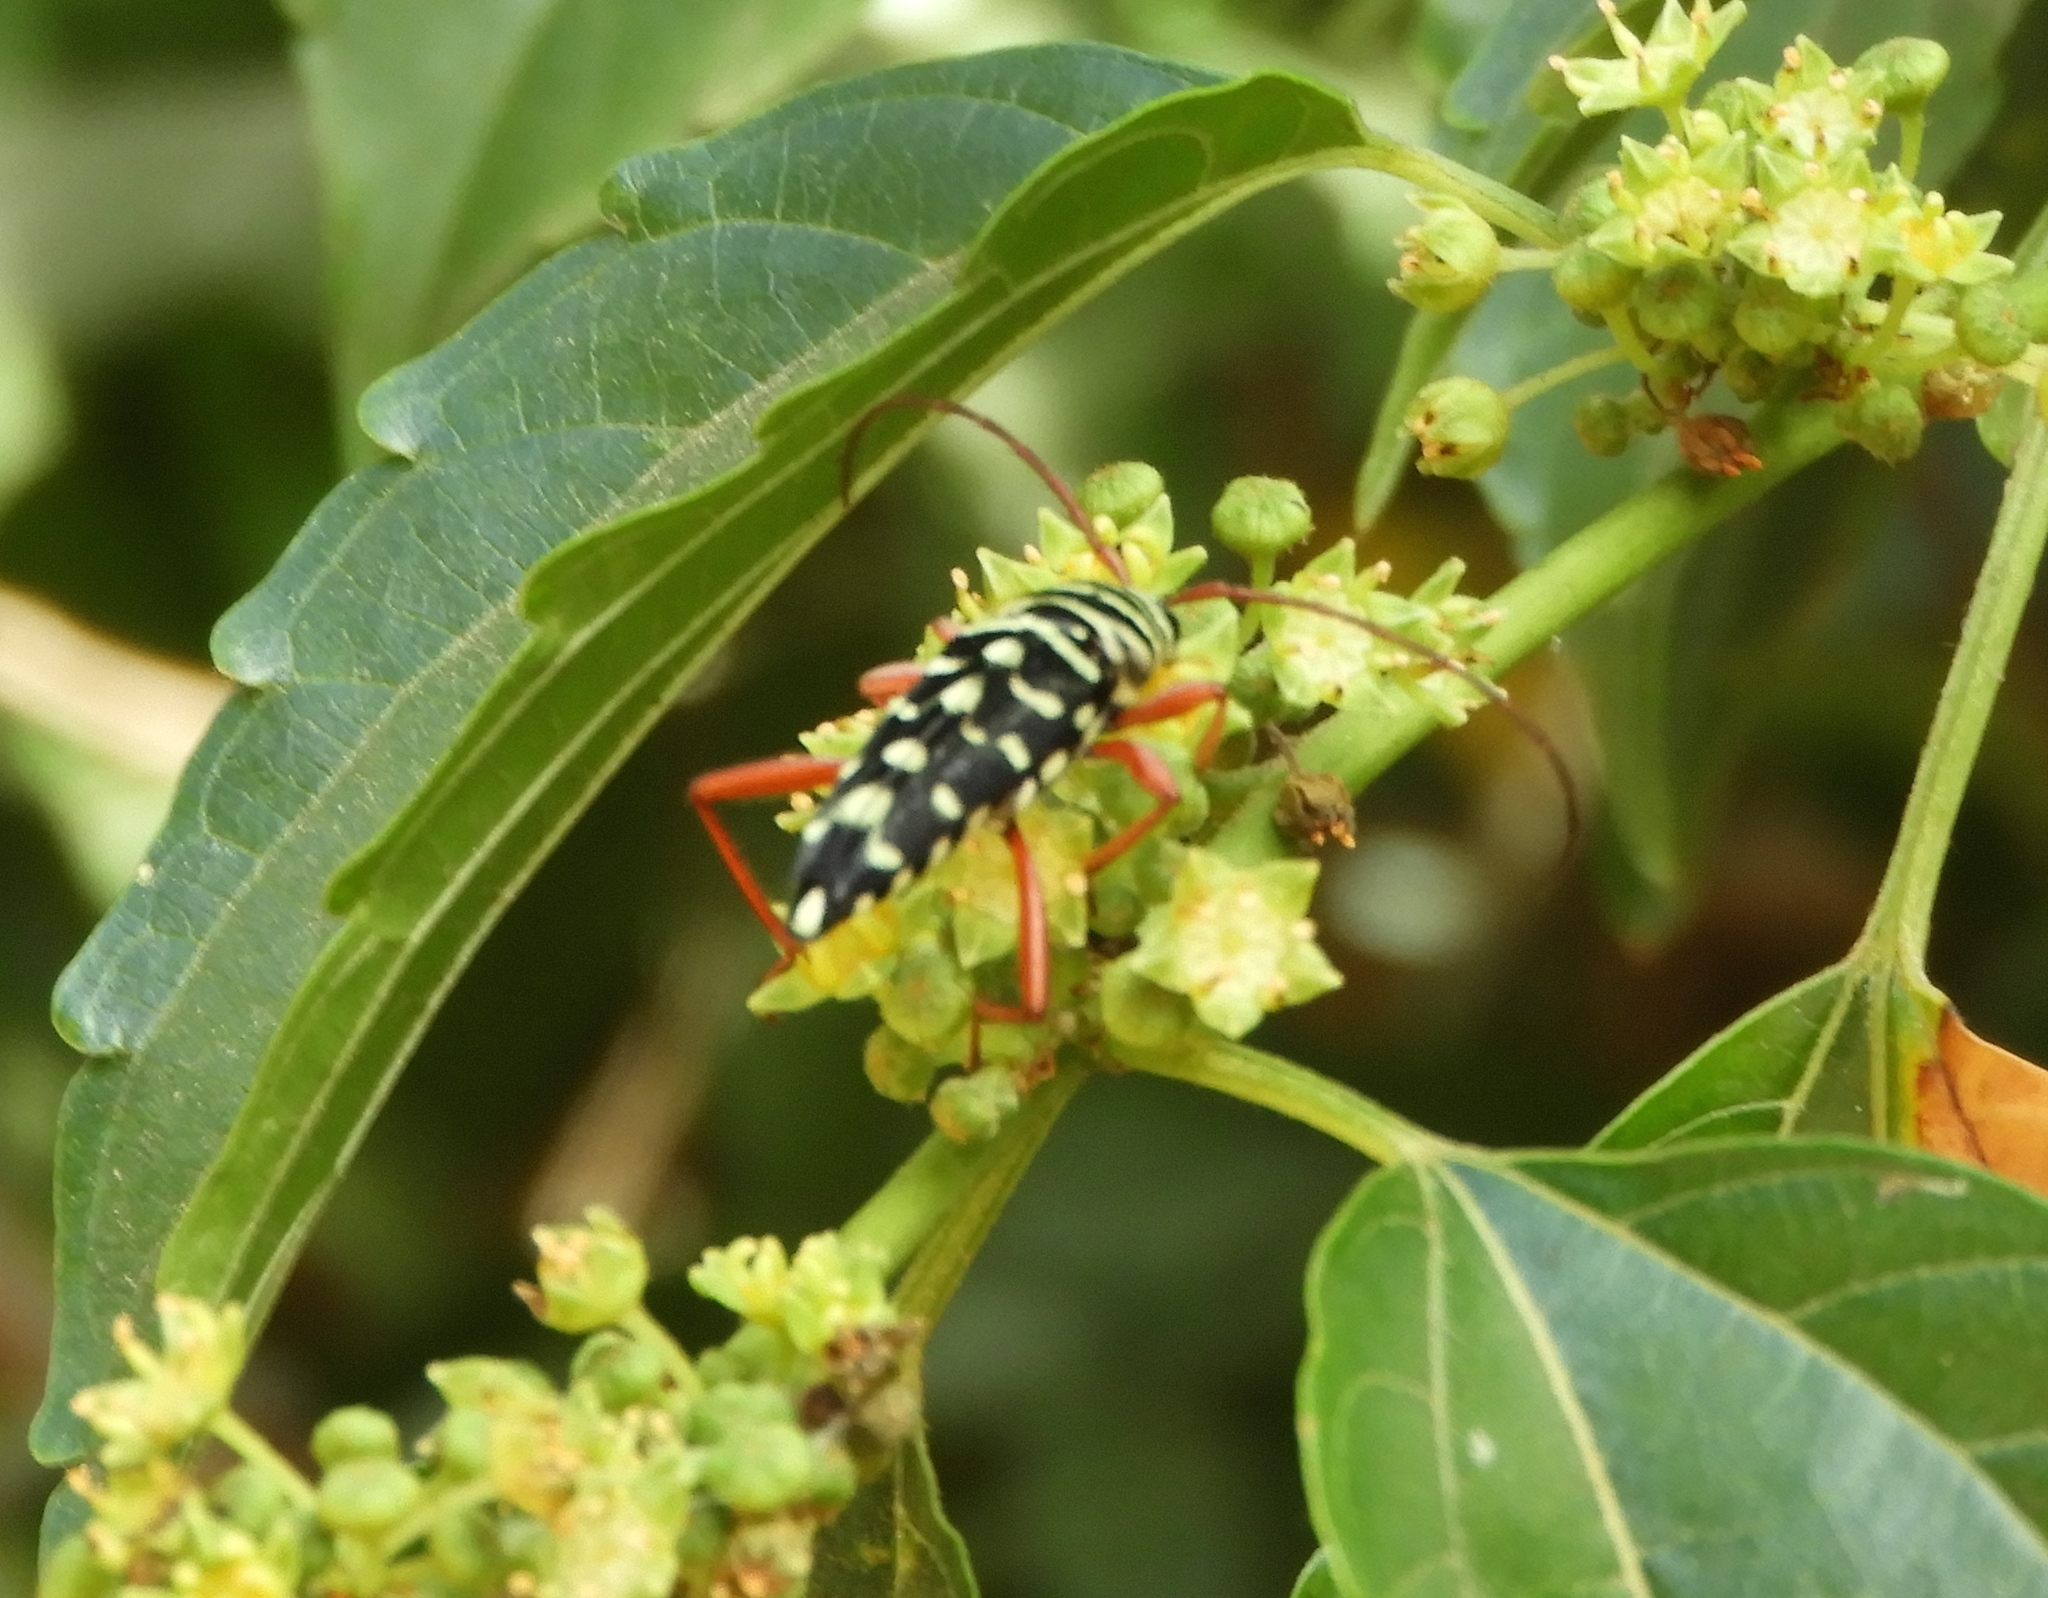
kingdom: Animalia
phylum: Arthropoda
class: Insecta
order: Coleoptera
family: Cerambycidae
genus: Placosternus
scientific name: Placosternus guttatus
